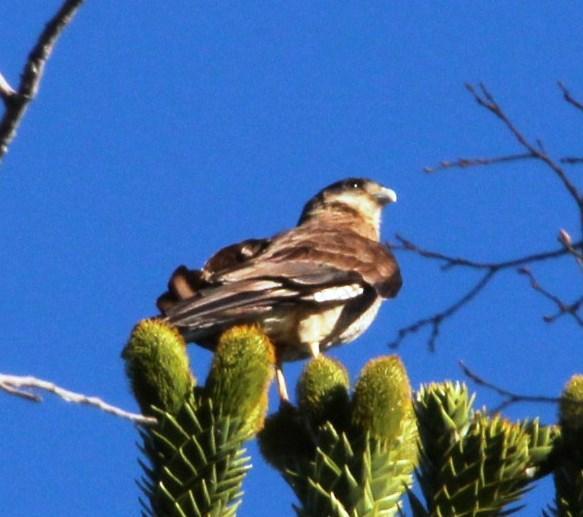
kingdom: Animalia
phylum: Chordata
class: Aves
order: Falconiformes
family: Falconidae
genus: Daptrius
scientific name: Daptrius
